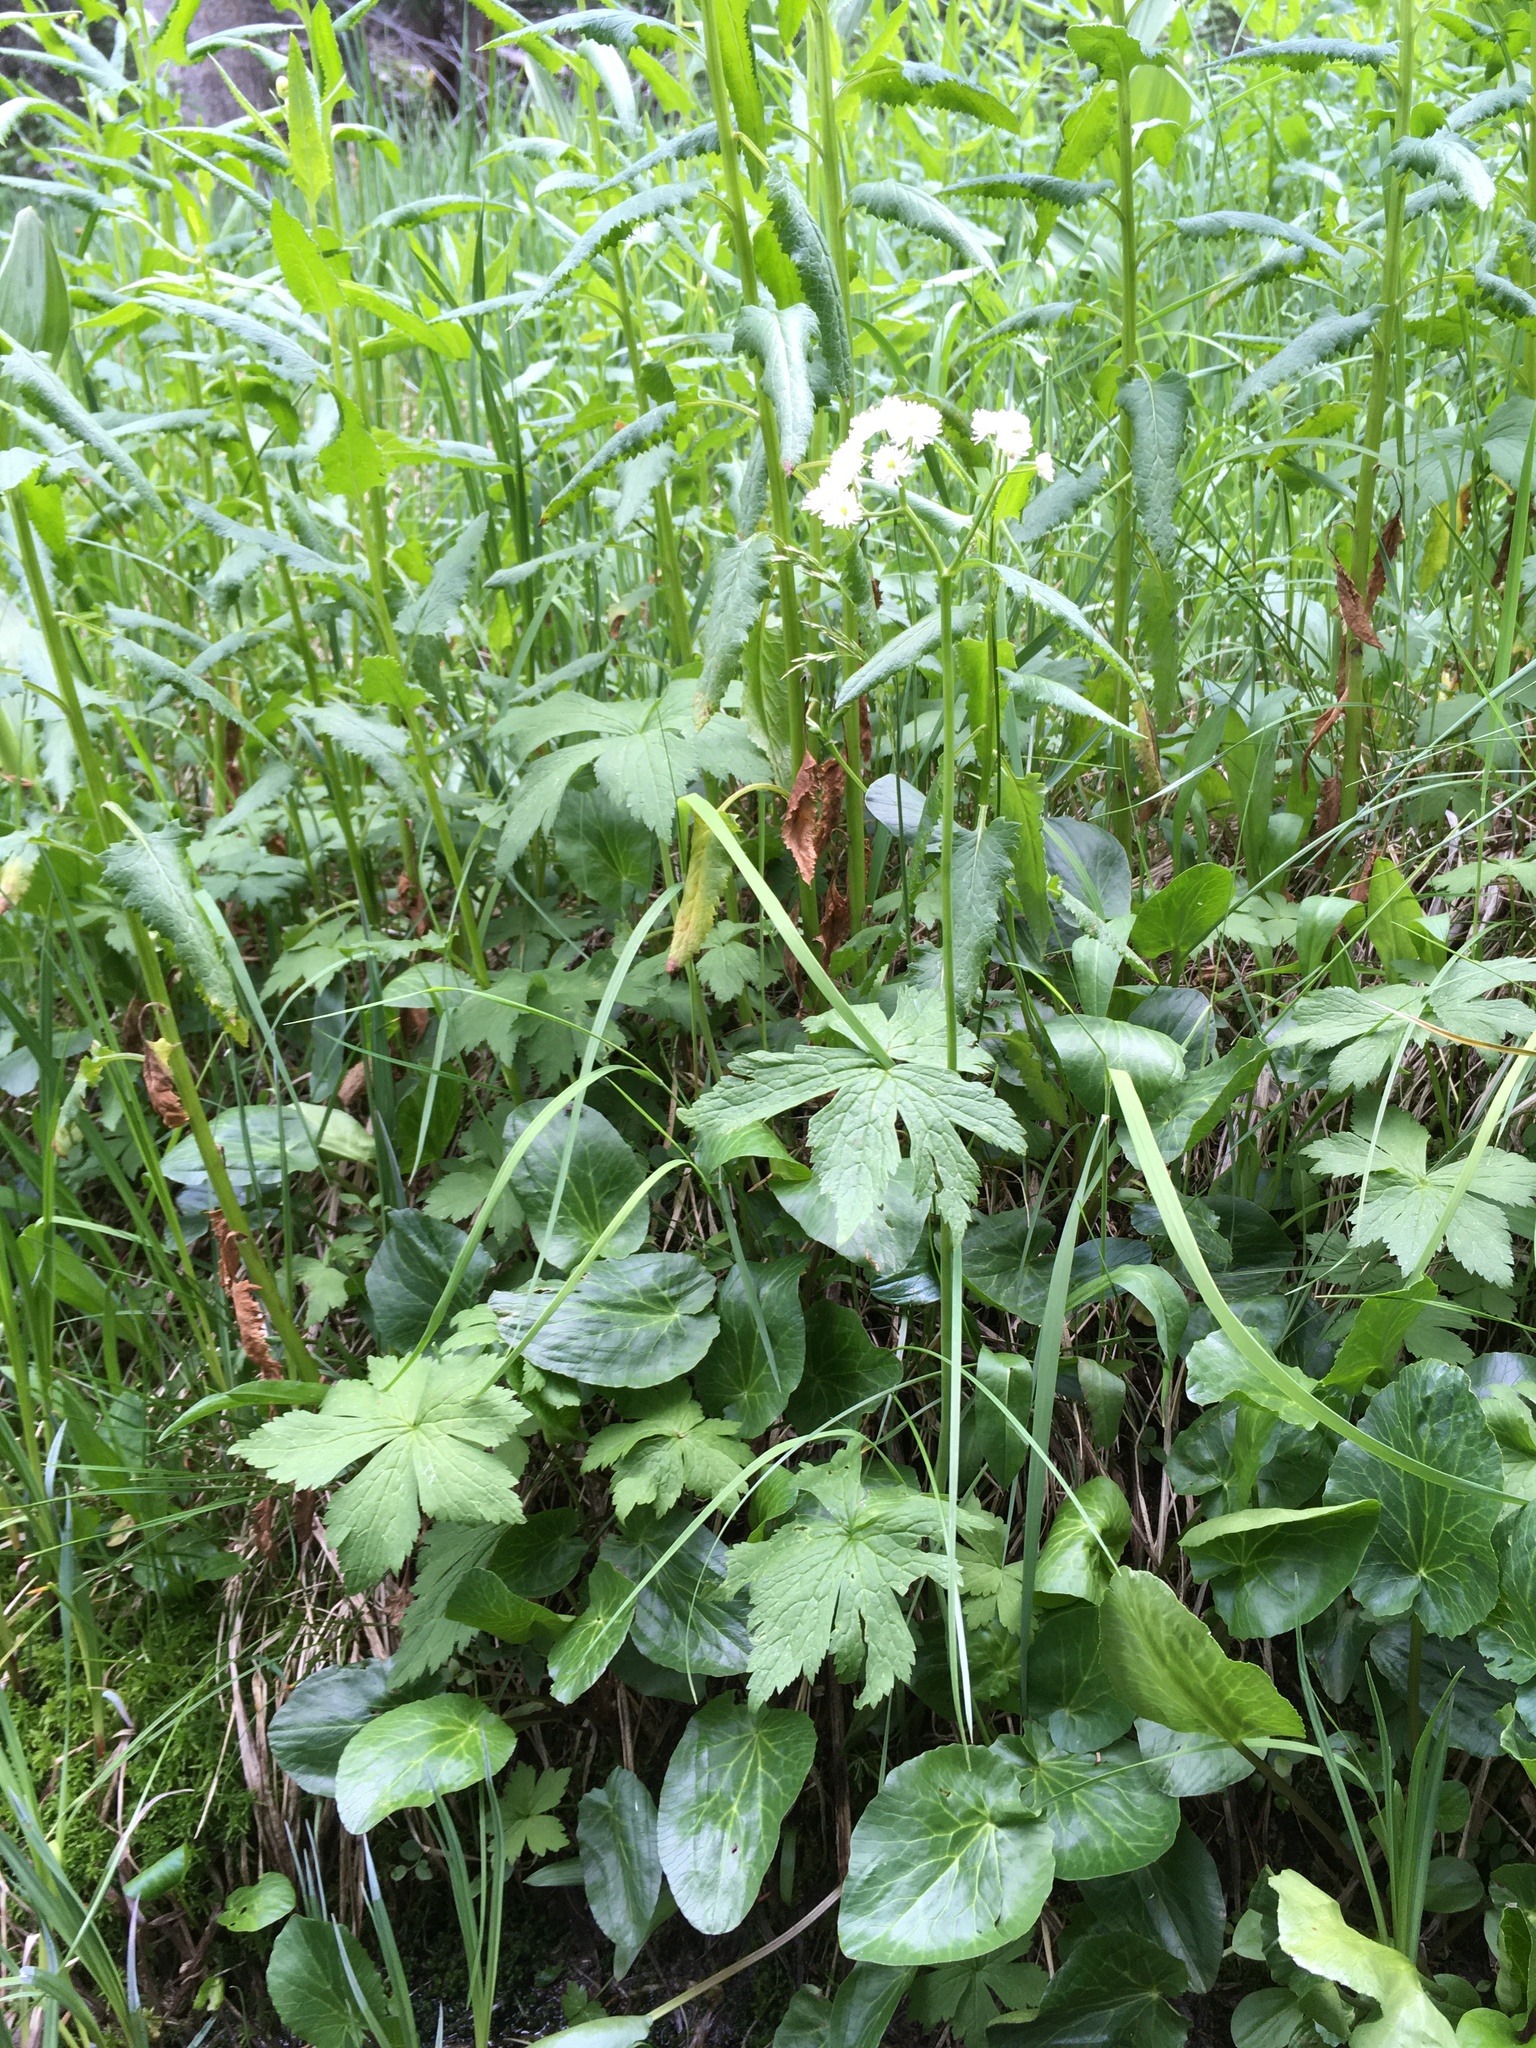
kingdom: Plantae
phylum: Tracheophyta
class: Magnoliopsida
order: Ranunculales
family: Ranunculaceae
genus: Trautvetteria
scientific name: Trautvetteria carolinensis
